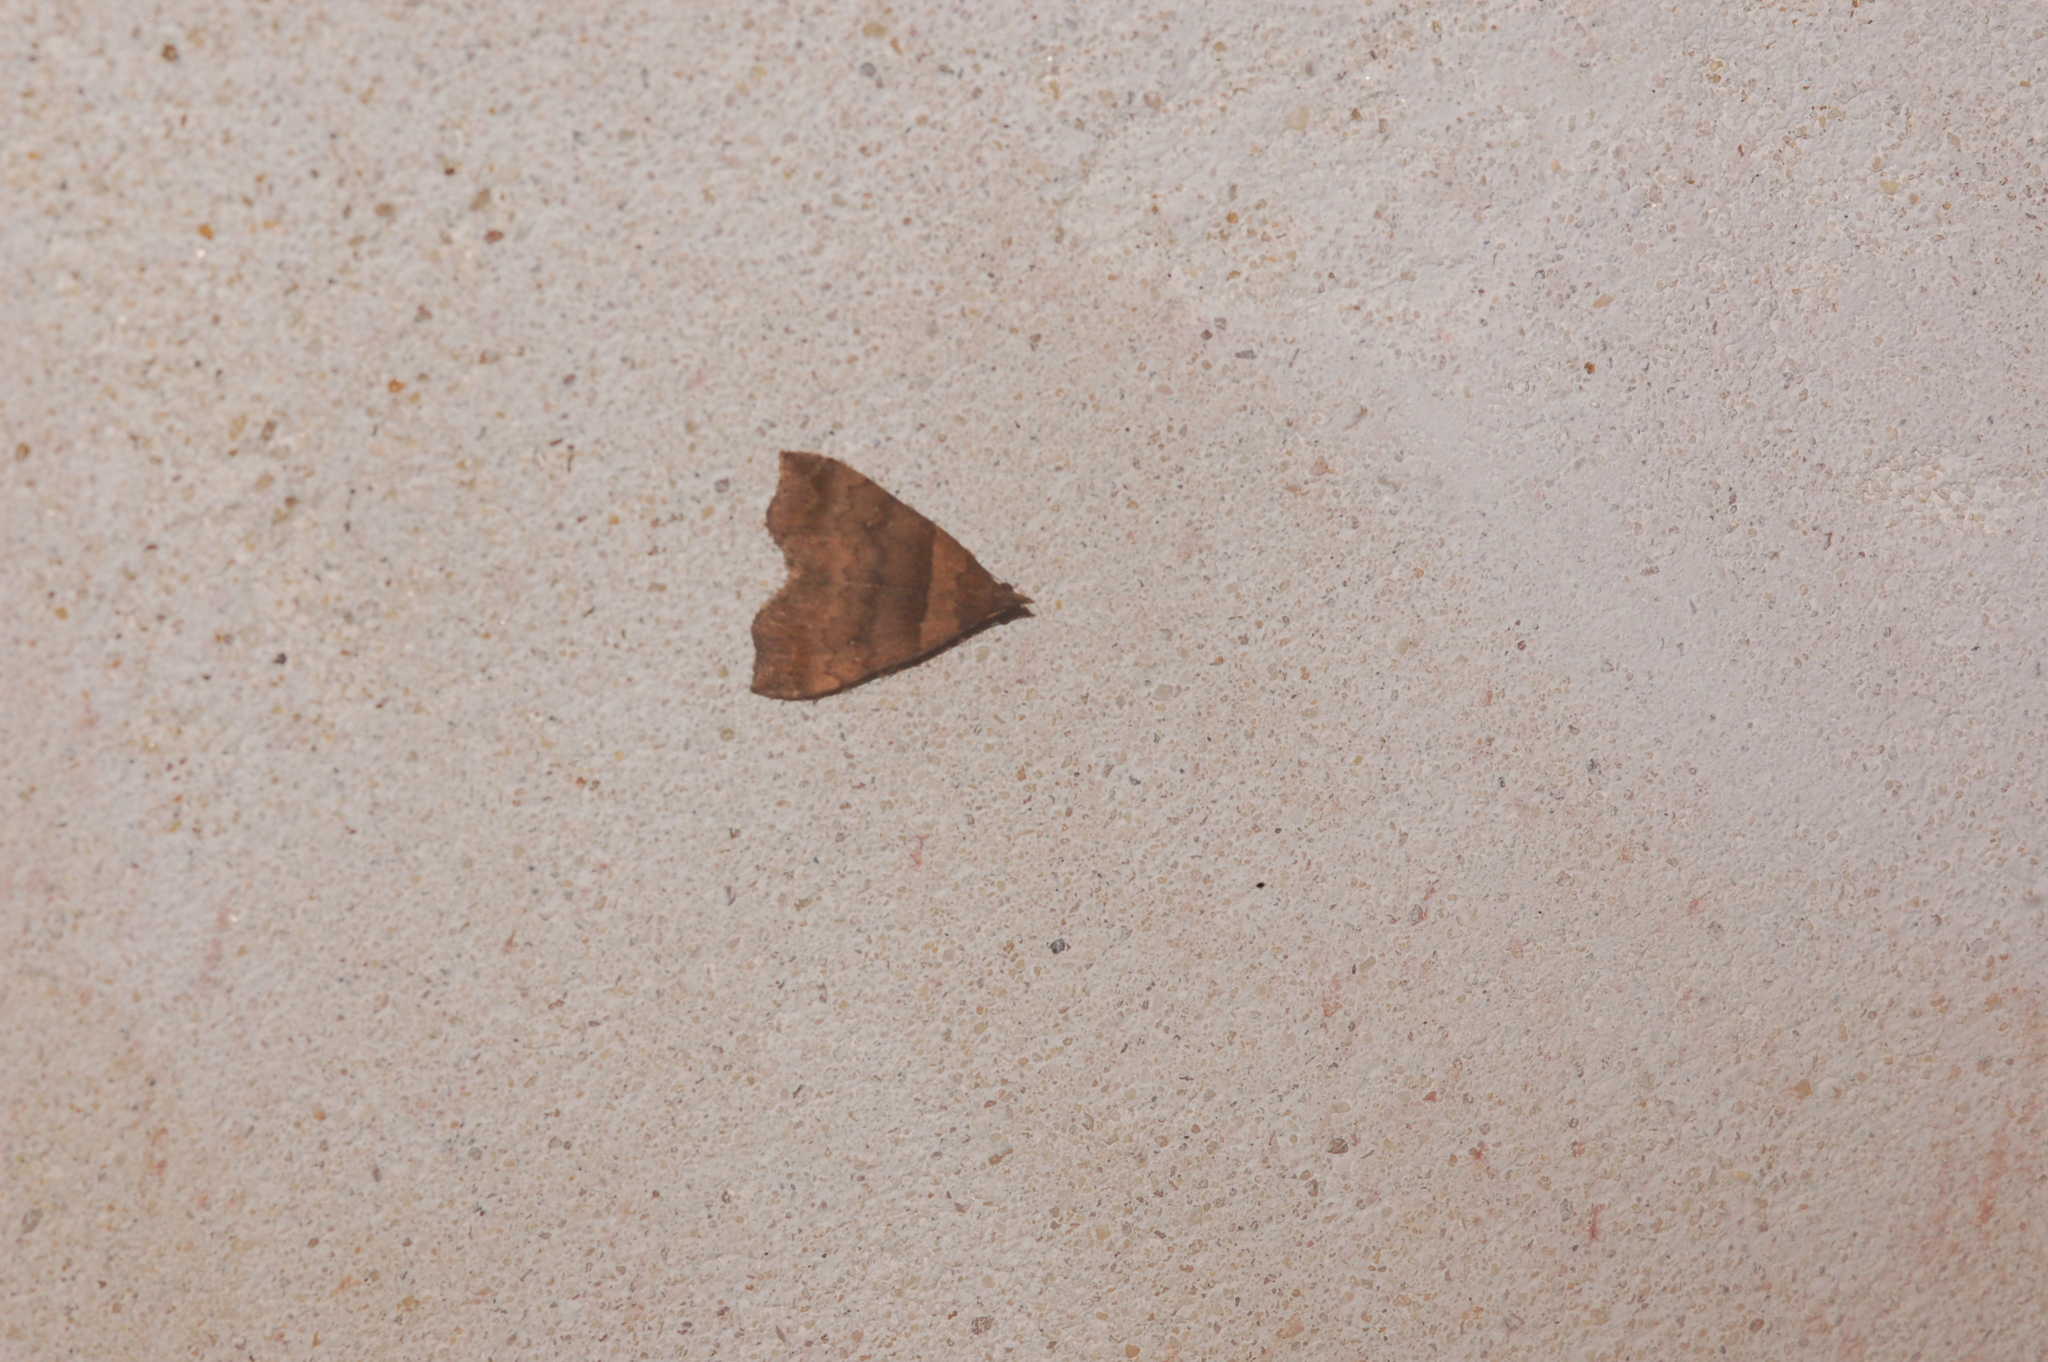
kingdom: Animalia
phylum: Arthropoda
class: Insecta
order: Lepidoptera
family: Erebidae
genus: Lascoria
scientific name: Lascoria ambigualis
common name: Ambiguous moth
